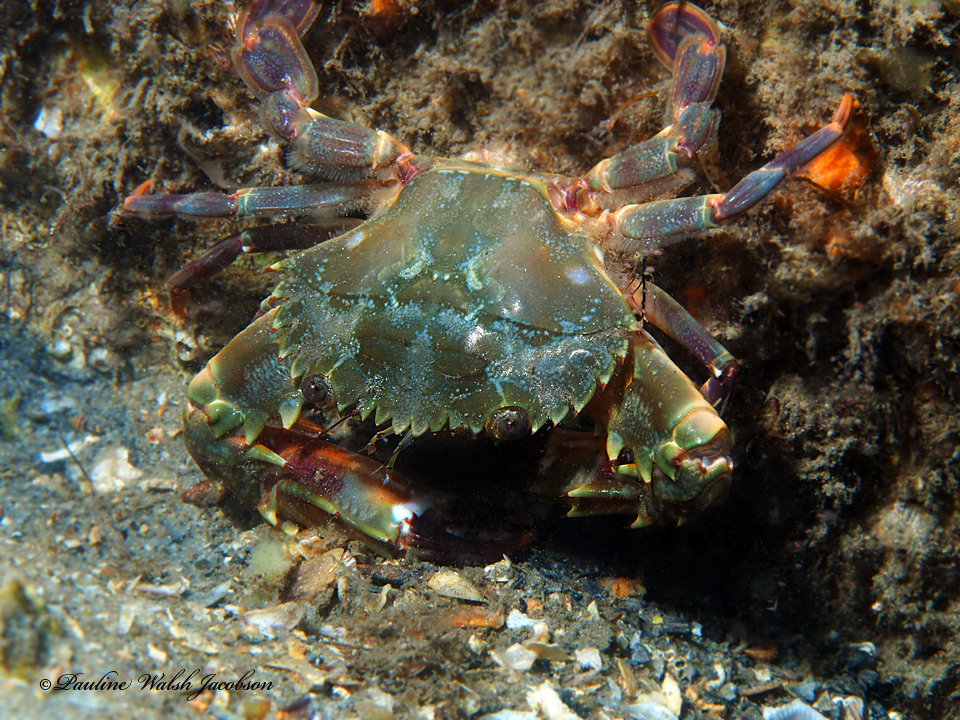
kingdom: Animalia
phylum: Arthropoda
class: Malacostraca
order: Decapoda
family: Portunidae
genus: Charybdis
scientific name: Charybdis hellerii
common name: Spiny hands
